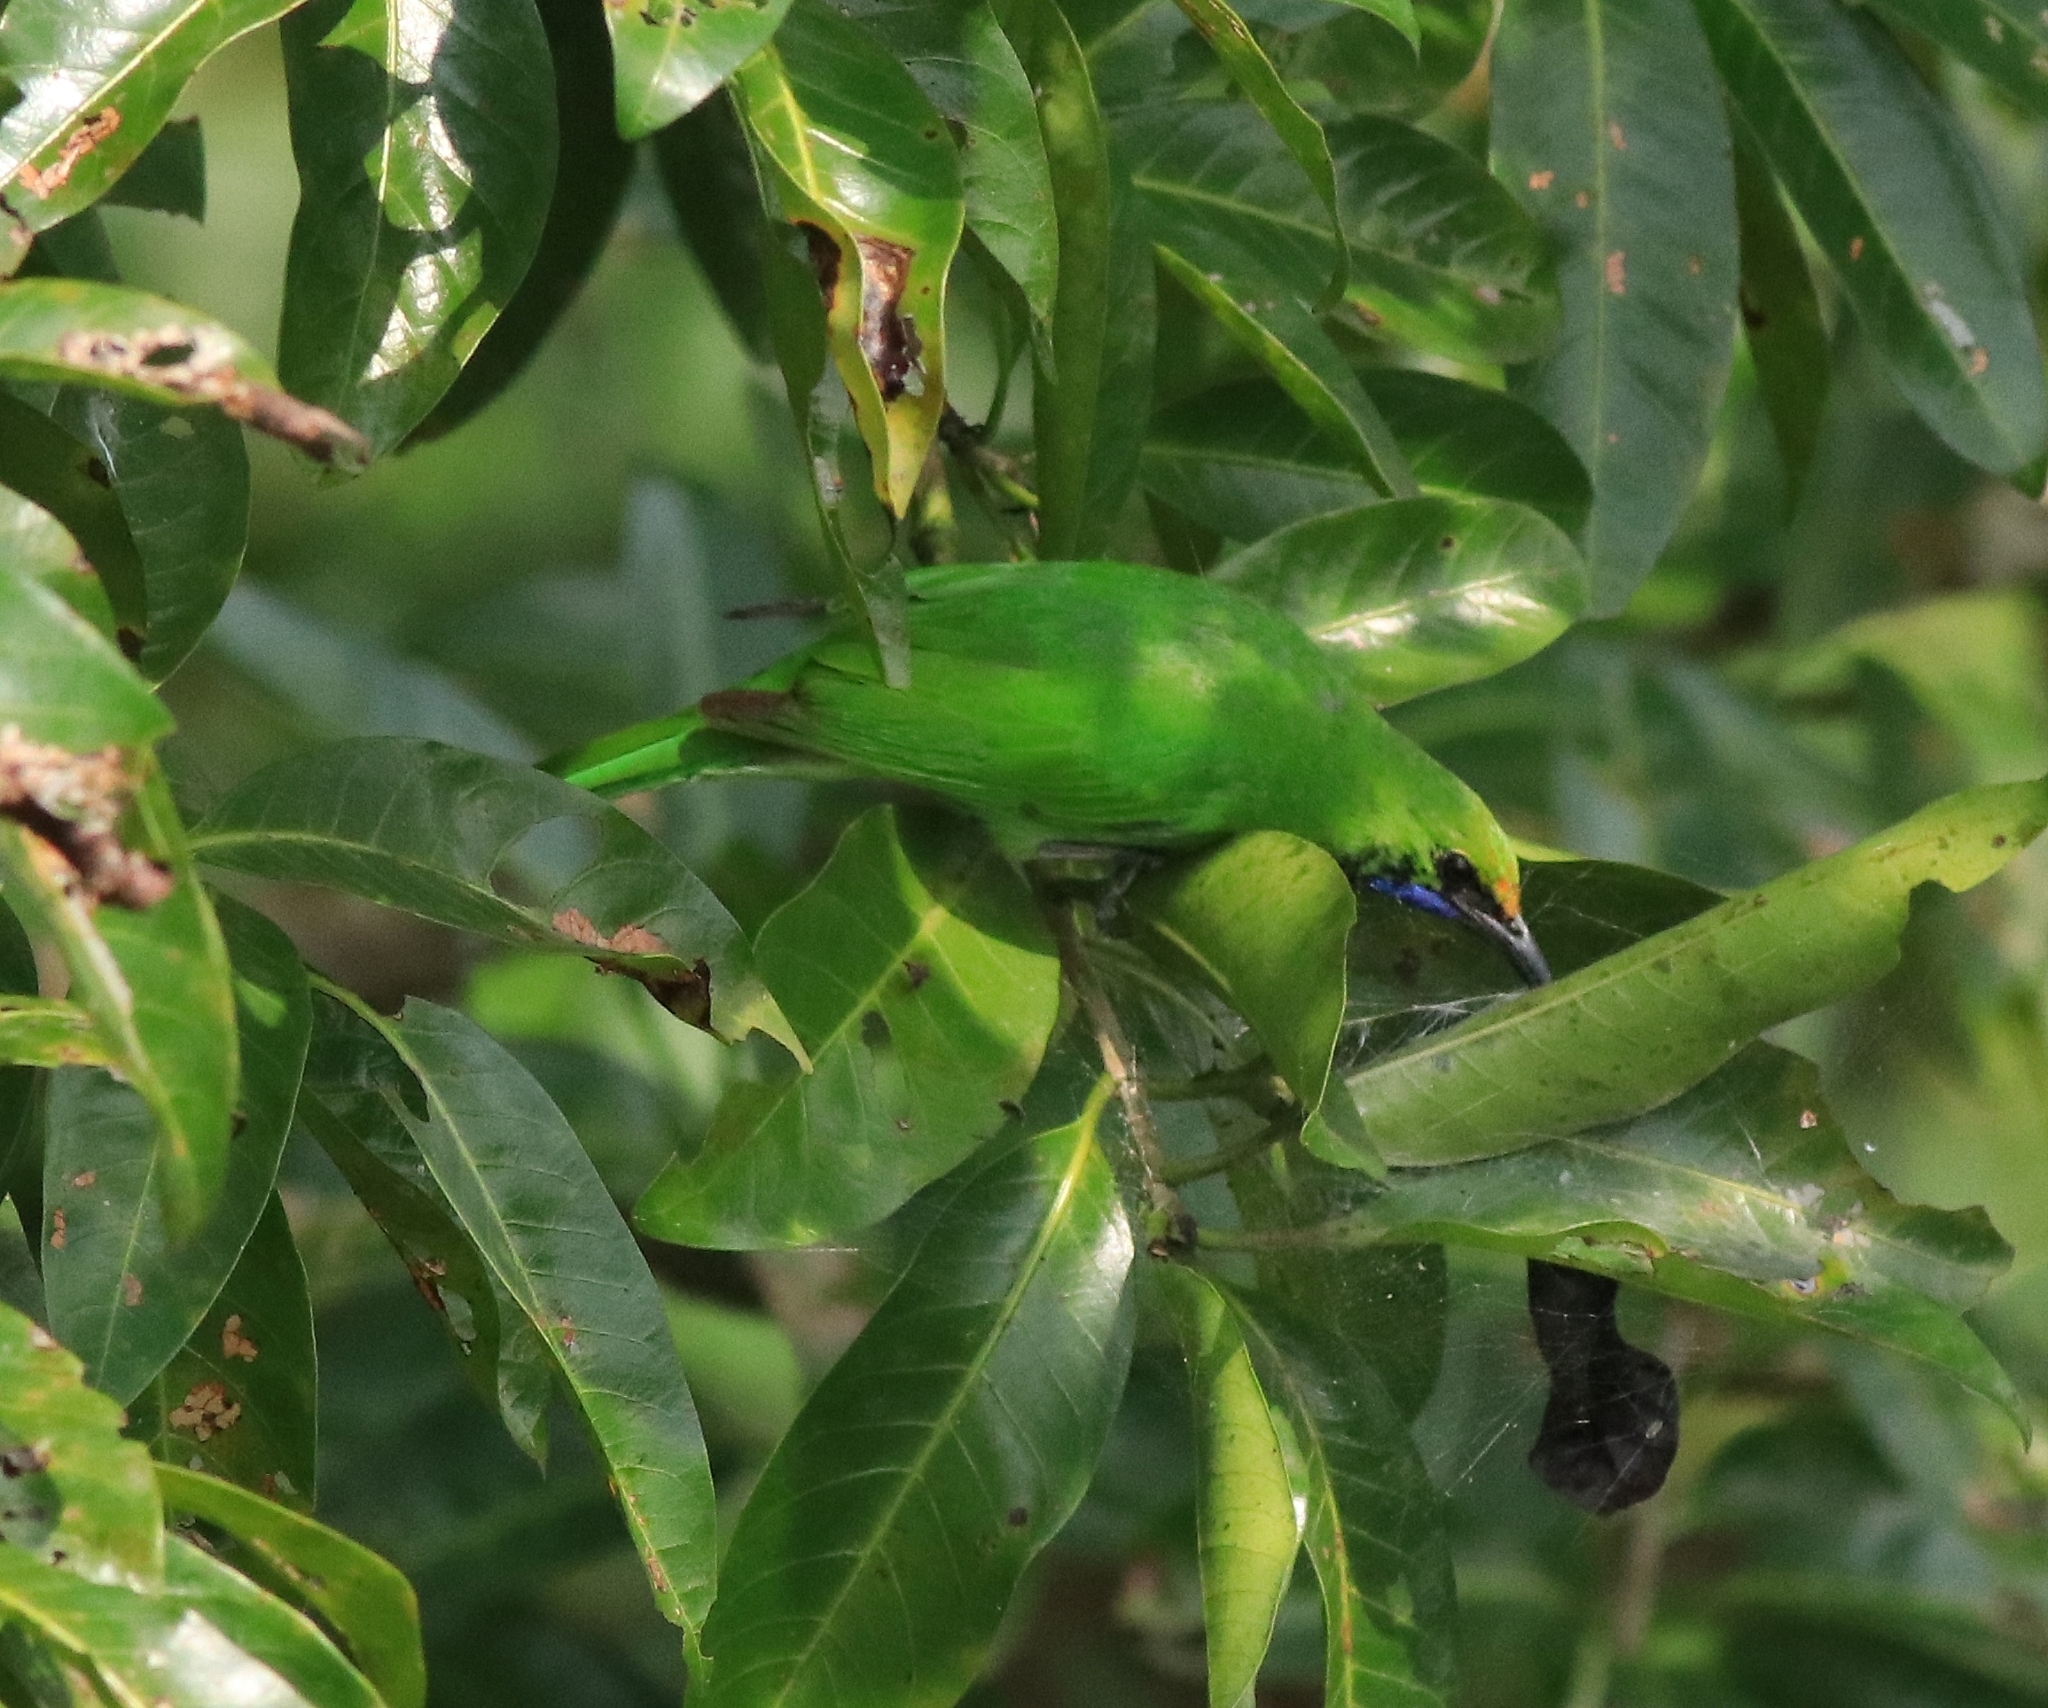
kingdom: Animalia
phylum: Chordata
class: Aves
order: Passeriformes
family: Chloropseidae
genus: Chloropsis
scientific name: Chloropsis aurifrons
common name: Golden-fronted leafbird
